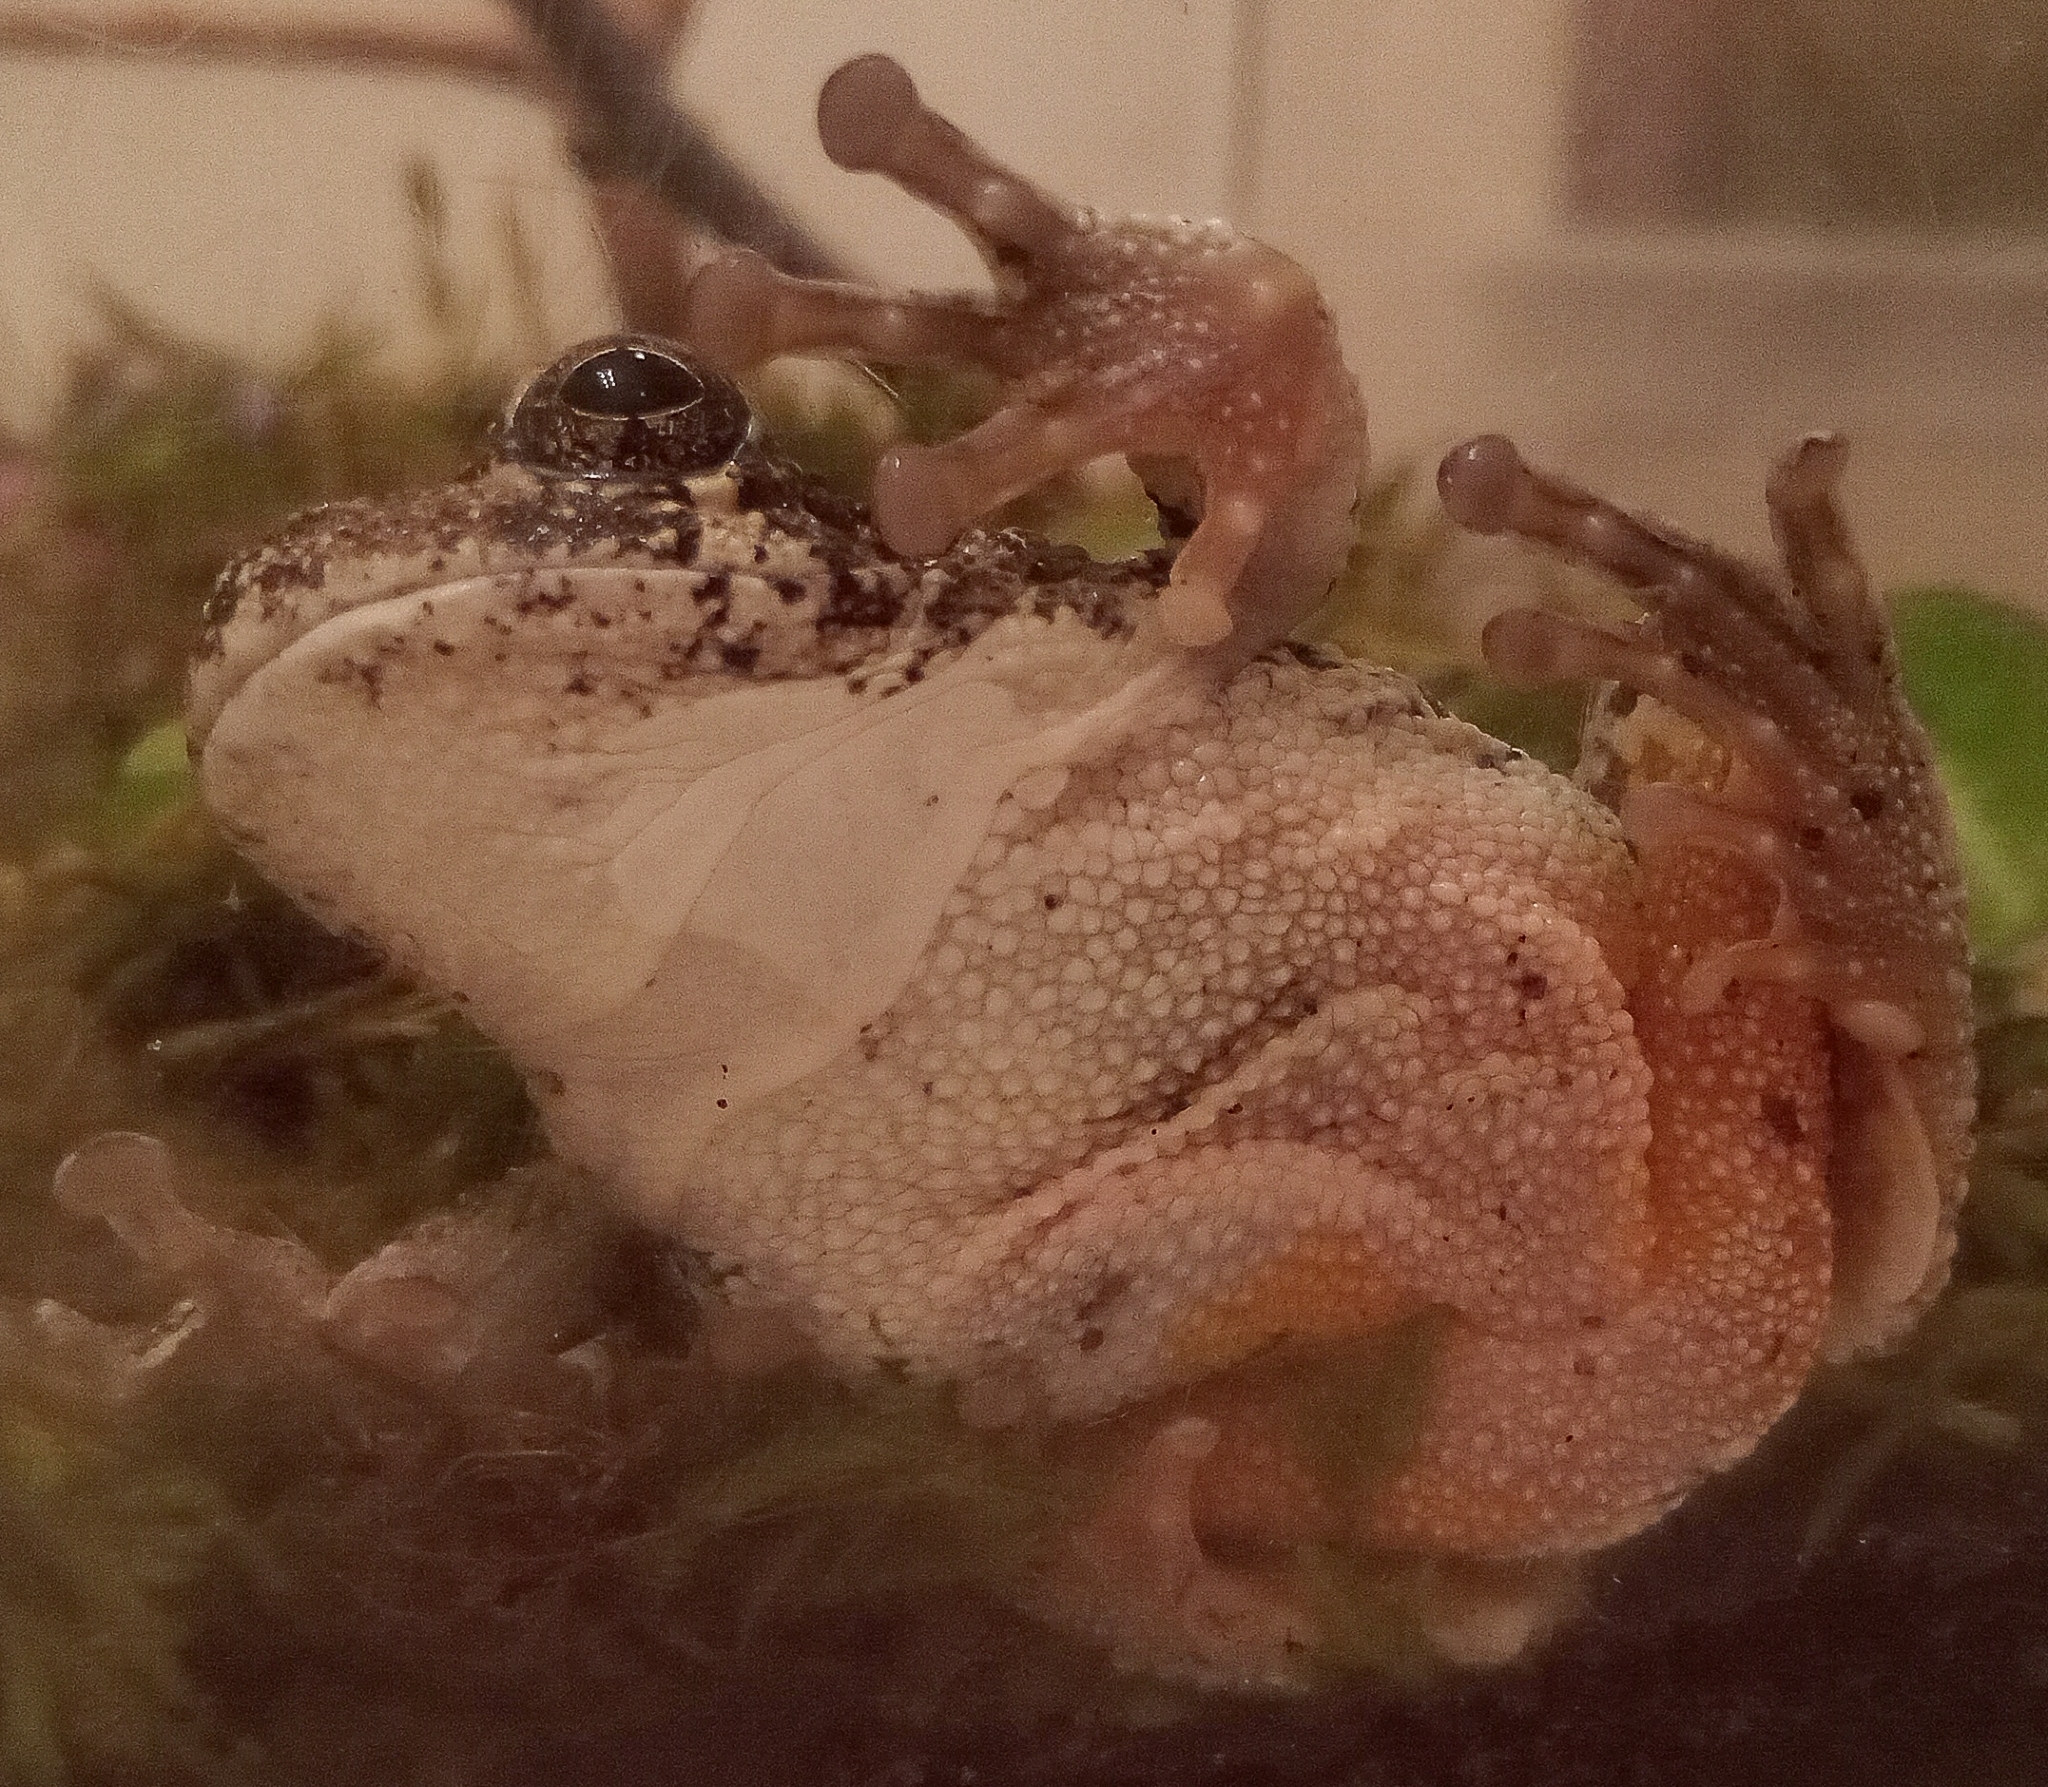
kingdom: Animalia
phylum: Chordata
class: Amphibia
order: Anura
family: Hylidae
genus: Dryophytes
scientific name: Dryophytes chrysoscelis
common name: Cope's gray treefrog
